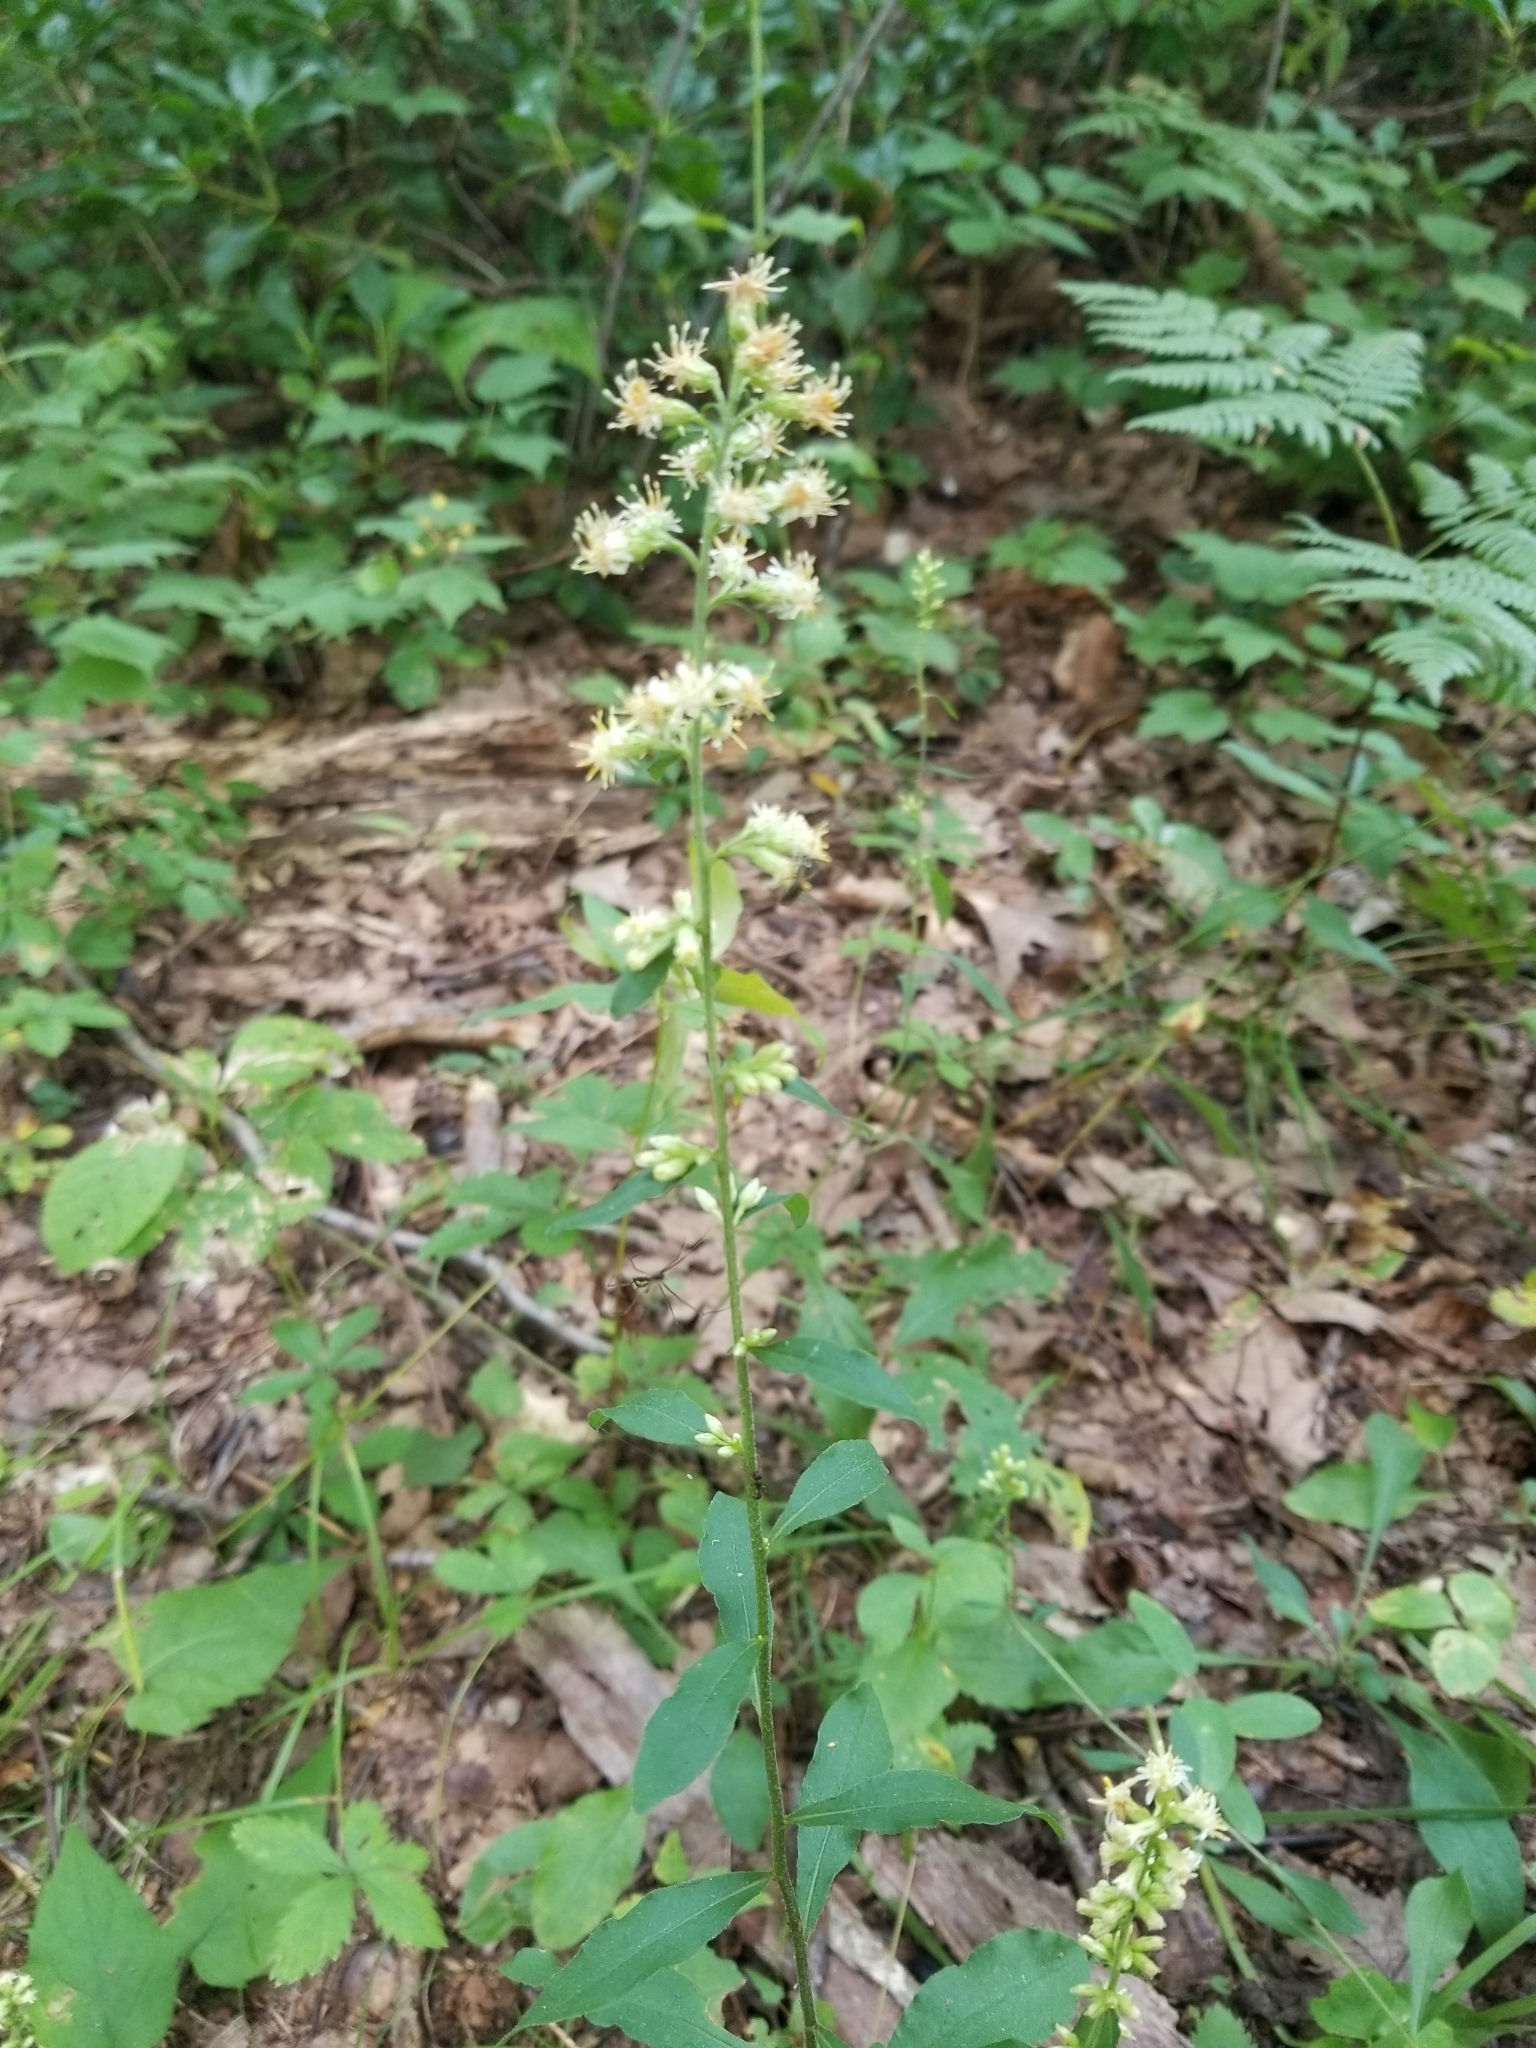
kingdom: Plantae
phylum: Tracheophyta
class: Magnoliopsida
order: Asterales
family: Asteraceae
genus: Solidago
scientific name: Solidago bicolor
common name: Silverrod
